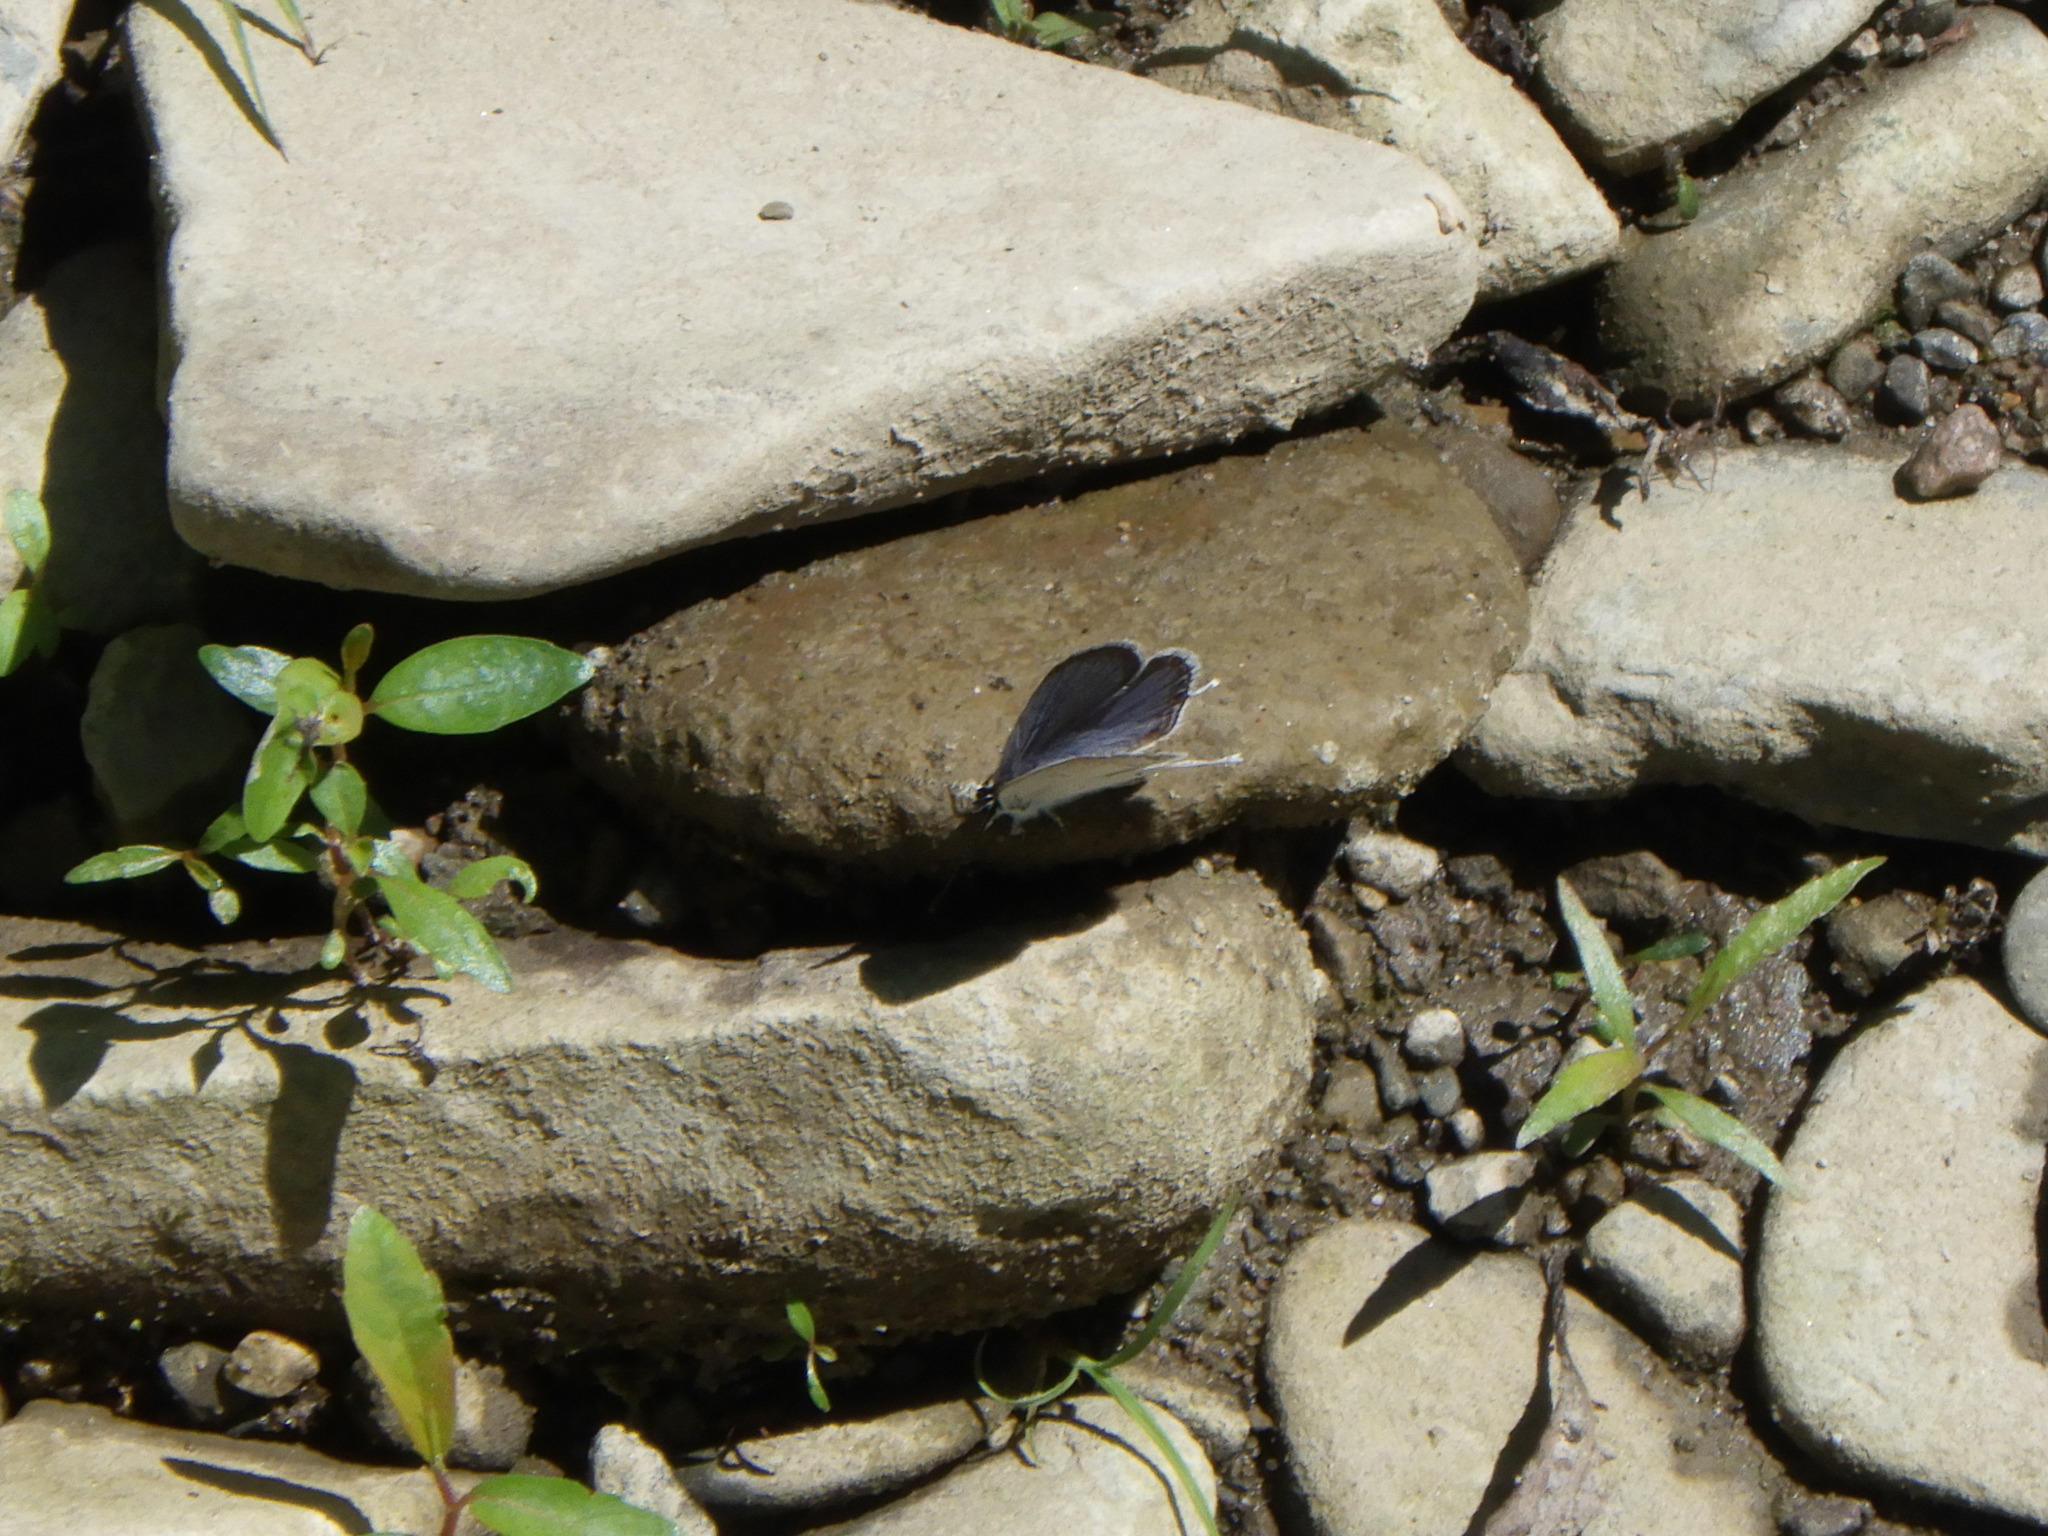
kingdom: Animalia
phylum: Arthropoda
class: Insecta
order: Lepidoptera
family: Lycaenidae
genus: Elkalyce
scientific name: Elkalyce comyntas
